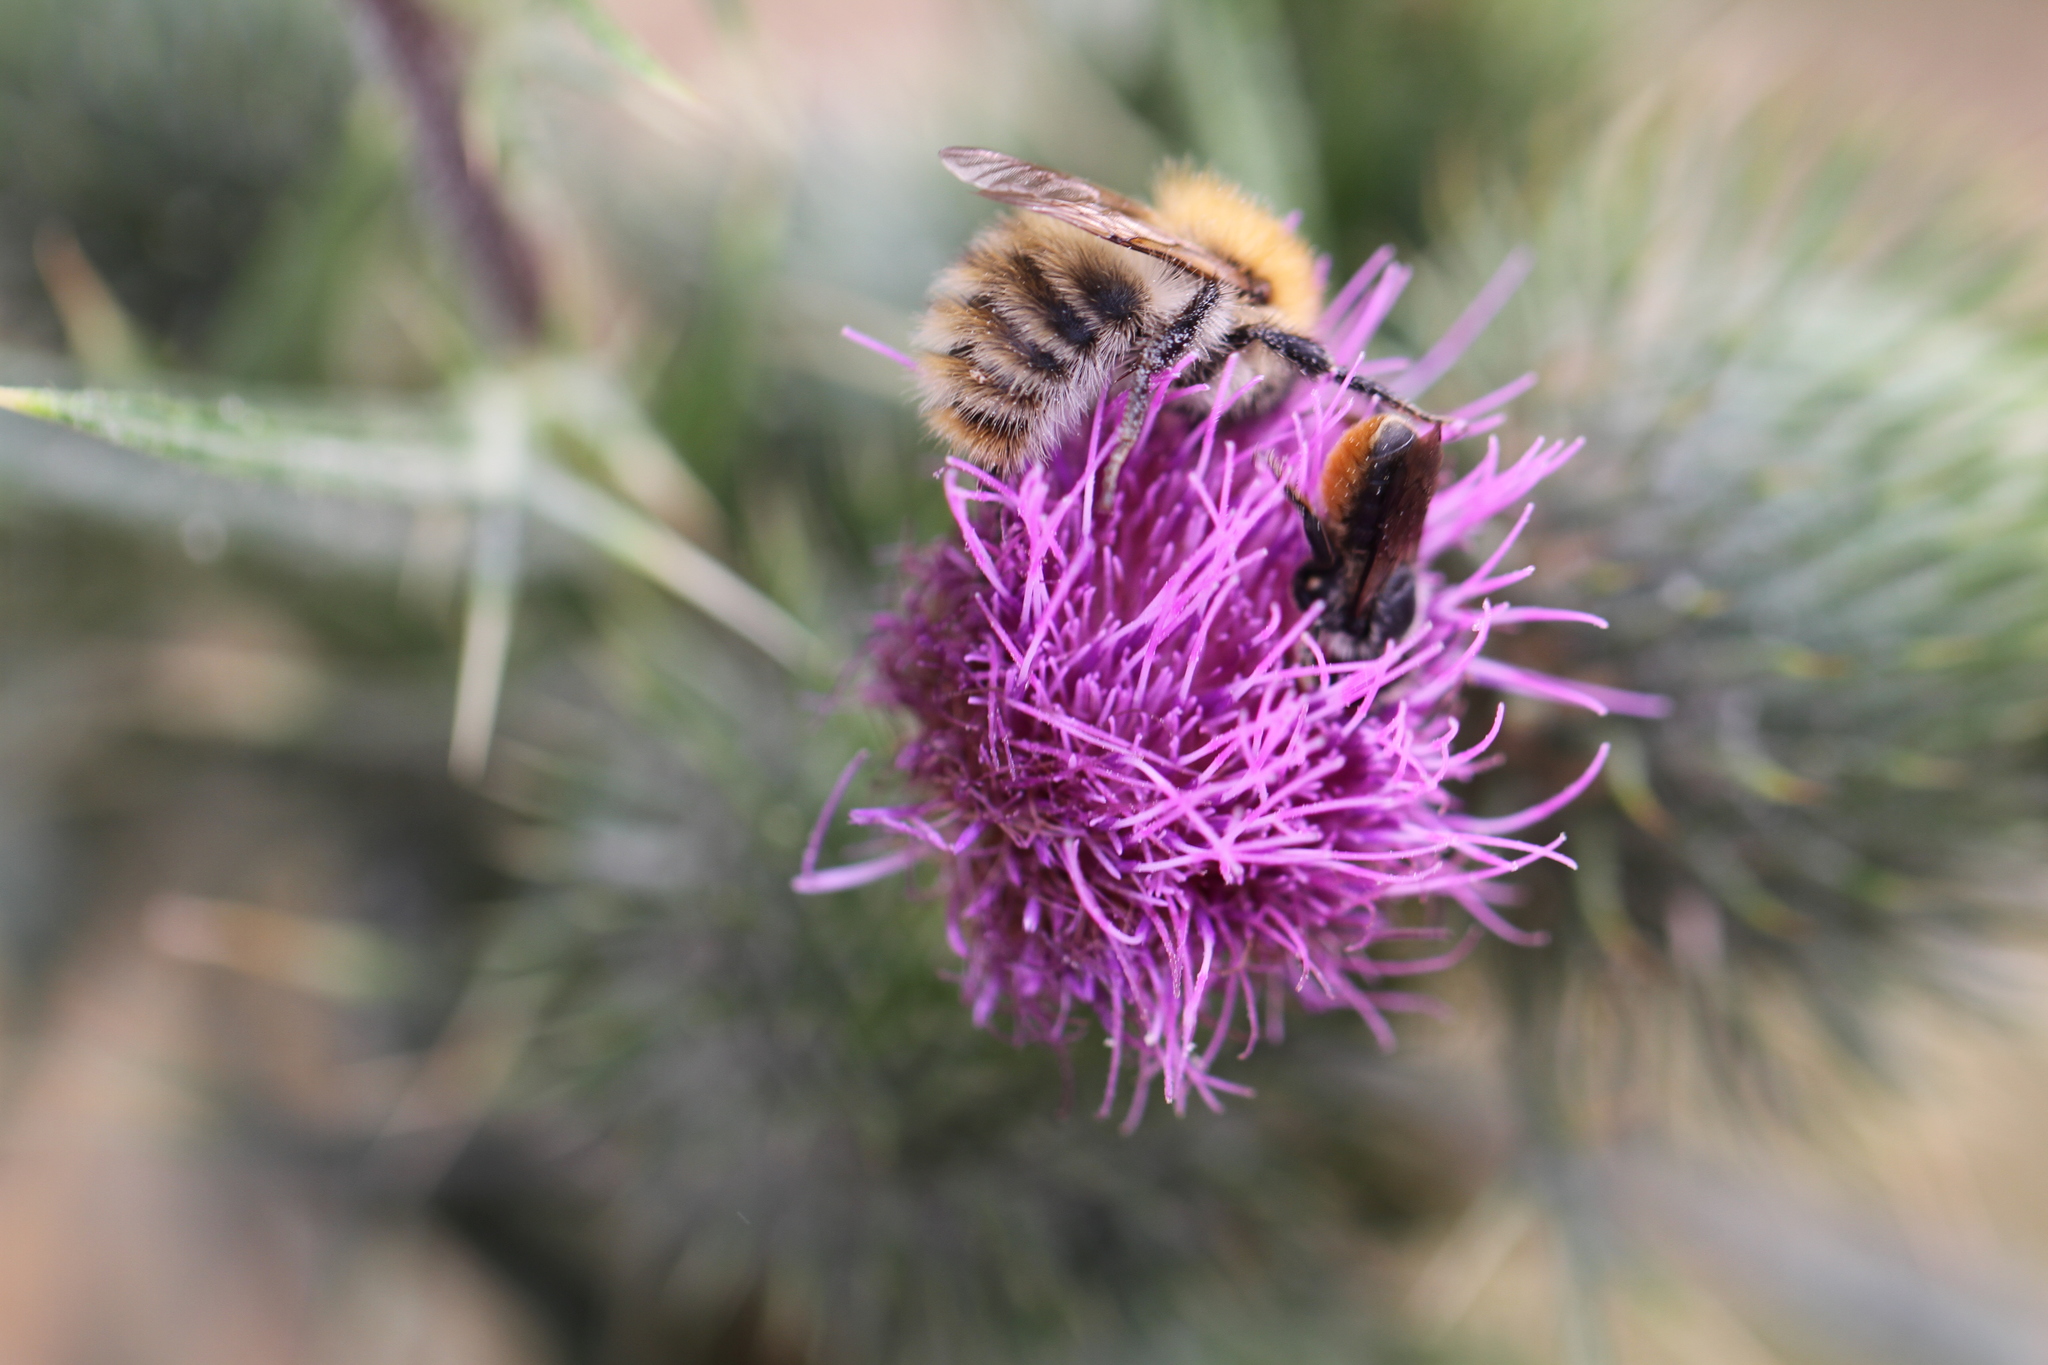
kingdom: Animalia
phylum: Arthropoda
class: Insecta
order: Hymenoptera
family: Apidae
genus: Bombus
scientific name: Bombus pascuorum
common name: Common carder bee
